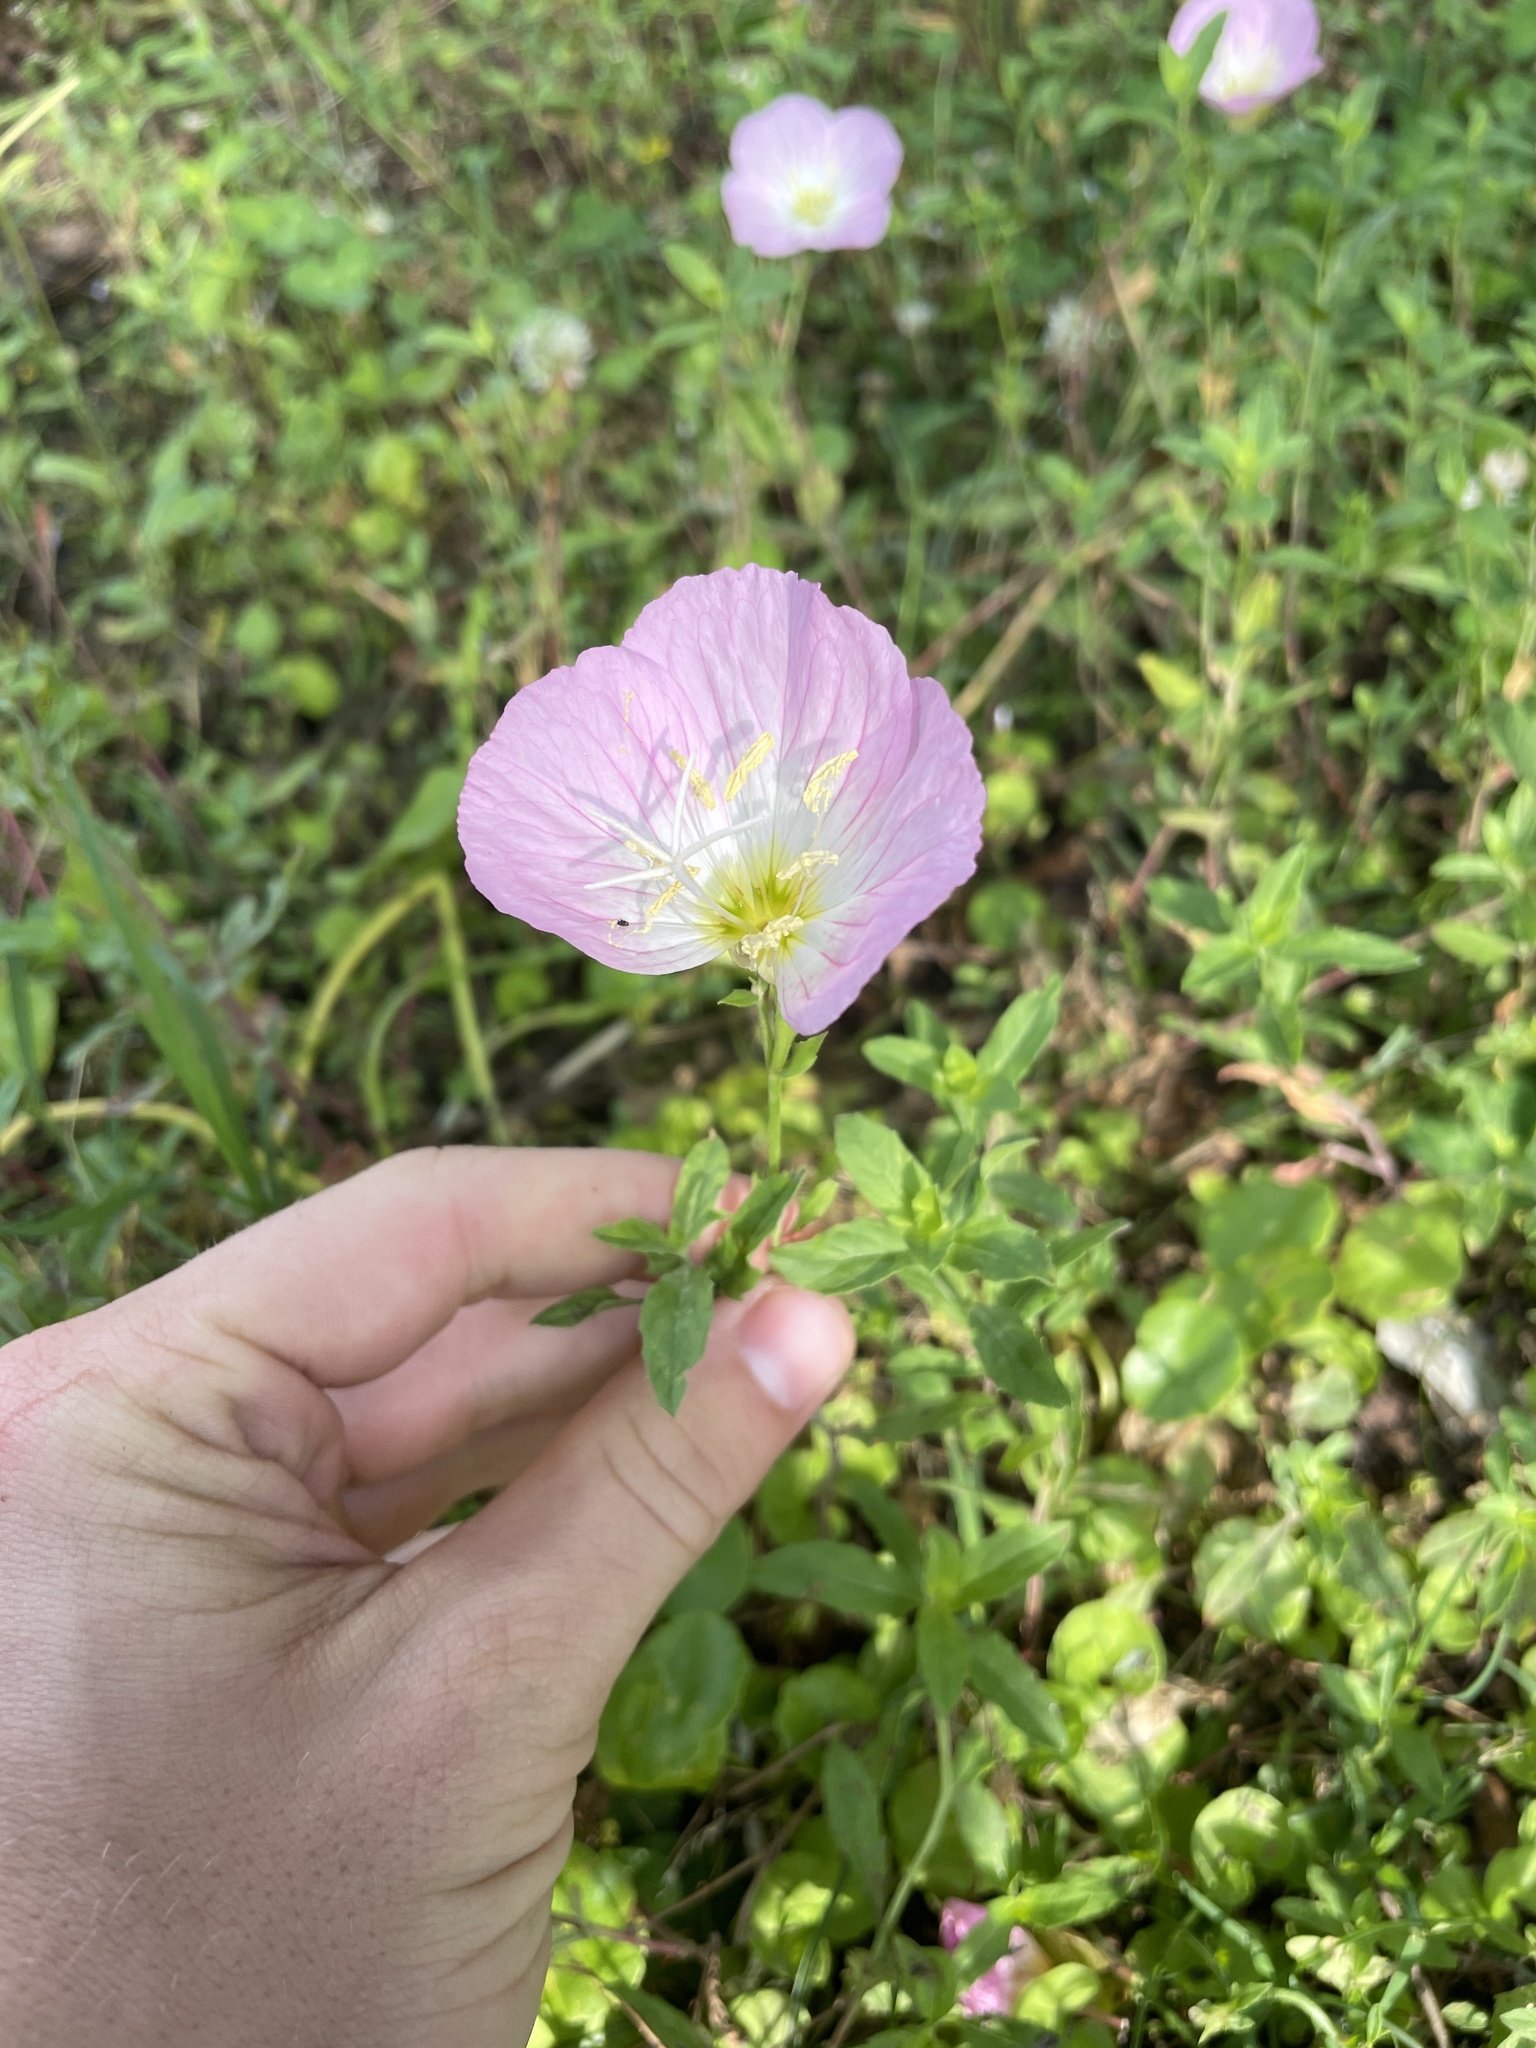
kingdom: Plantae
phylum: Tracheophyta
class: Magnoliopsida
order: Myrtales
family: Onagraceae
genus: Oenothera
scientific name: Oenothera speciosa
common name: White evening-primrose
